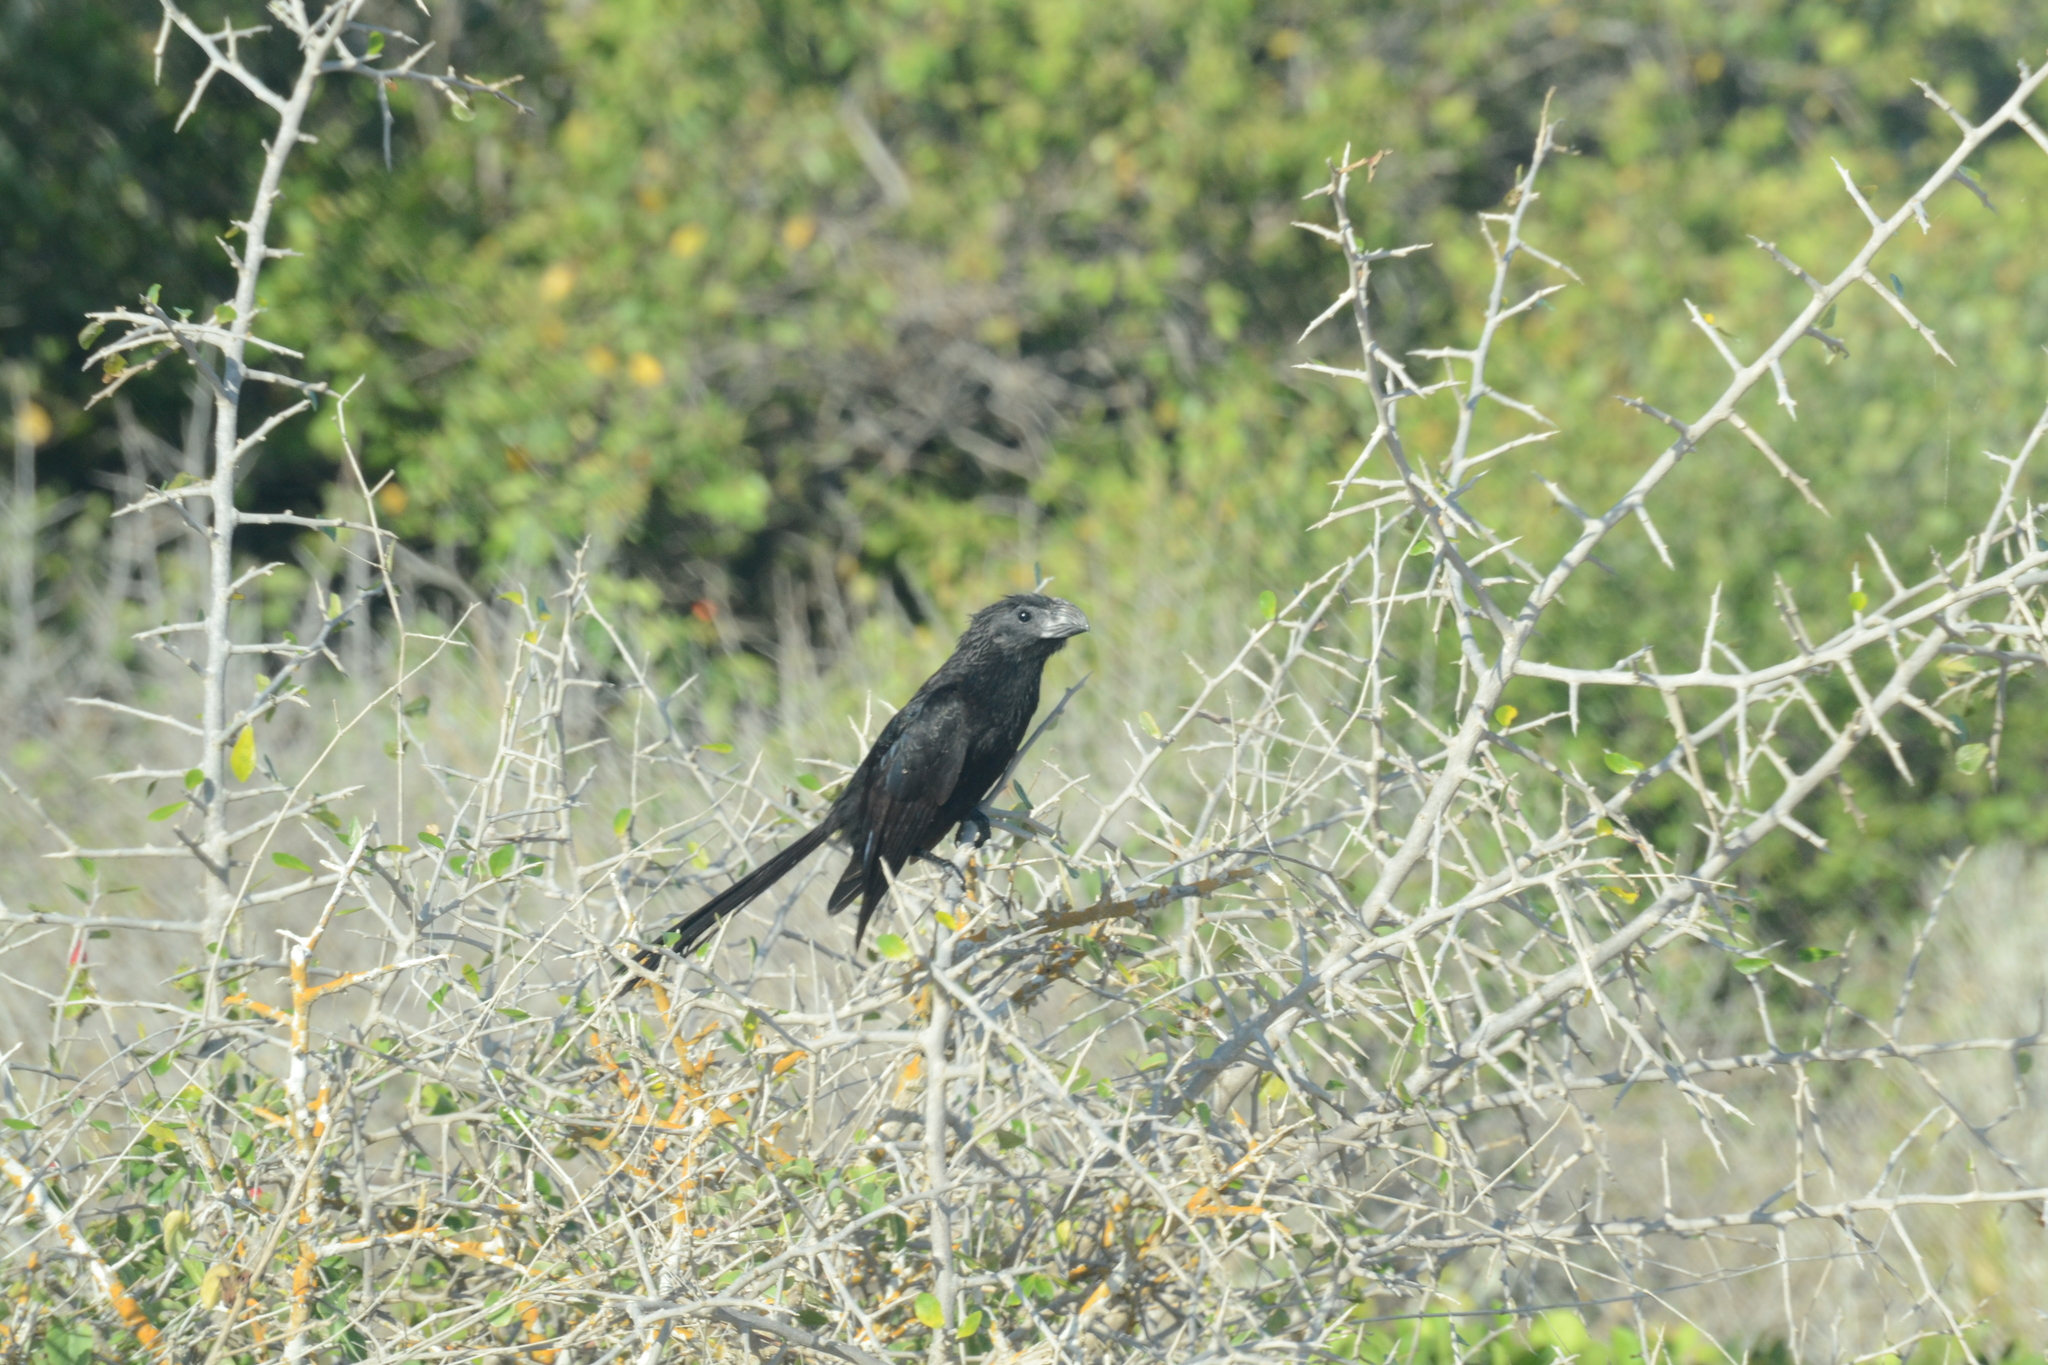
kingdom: Animalia
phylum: Chordata
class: Aves
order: Cuculiformes
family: Cuculidae
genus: Crotophaga
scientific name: Crotophaga sulcirostris
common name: Groove-billed ani
